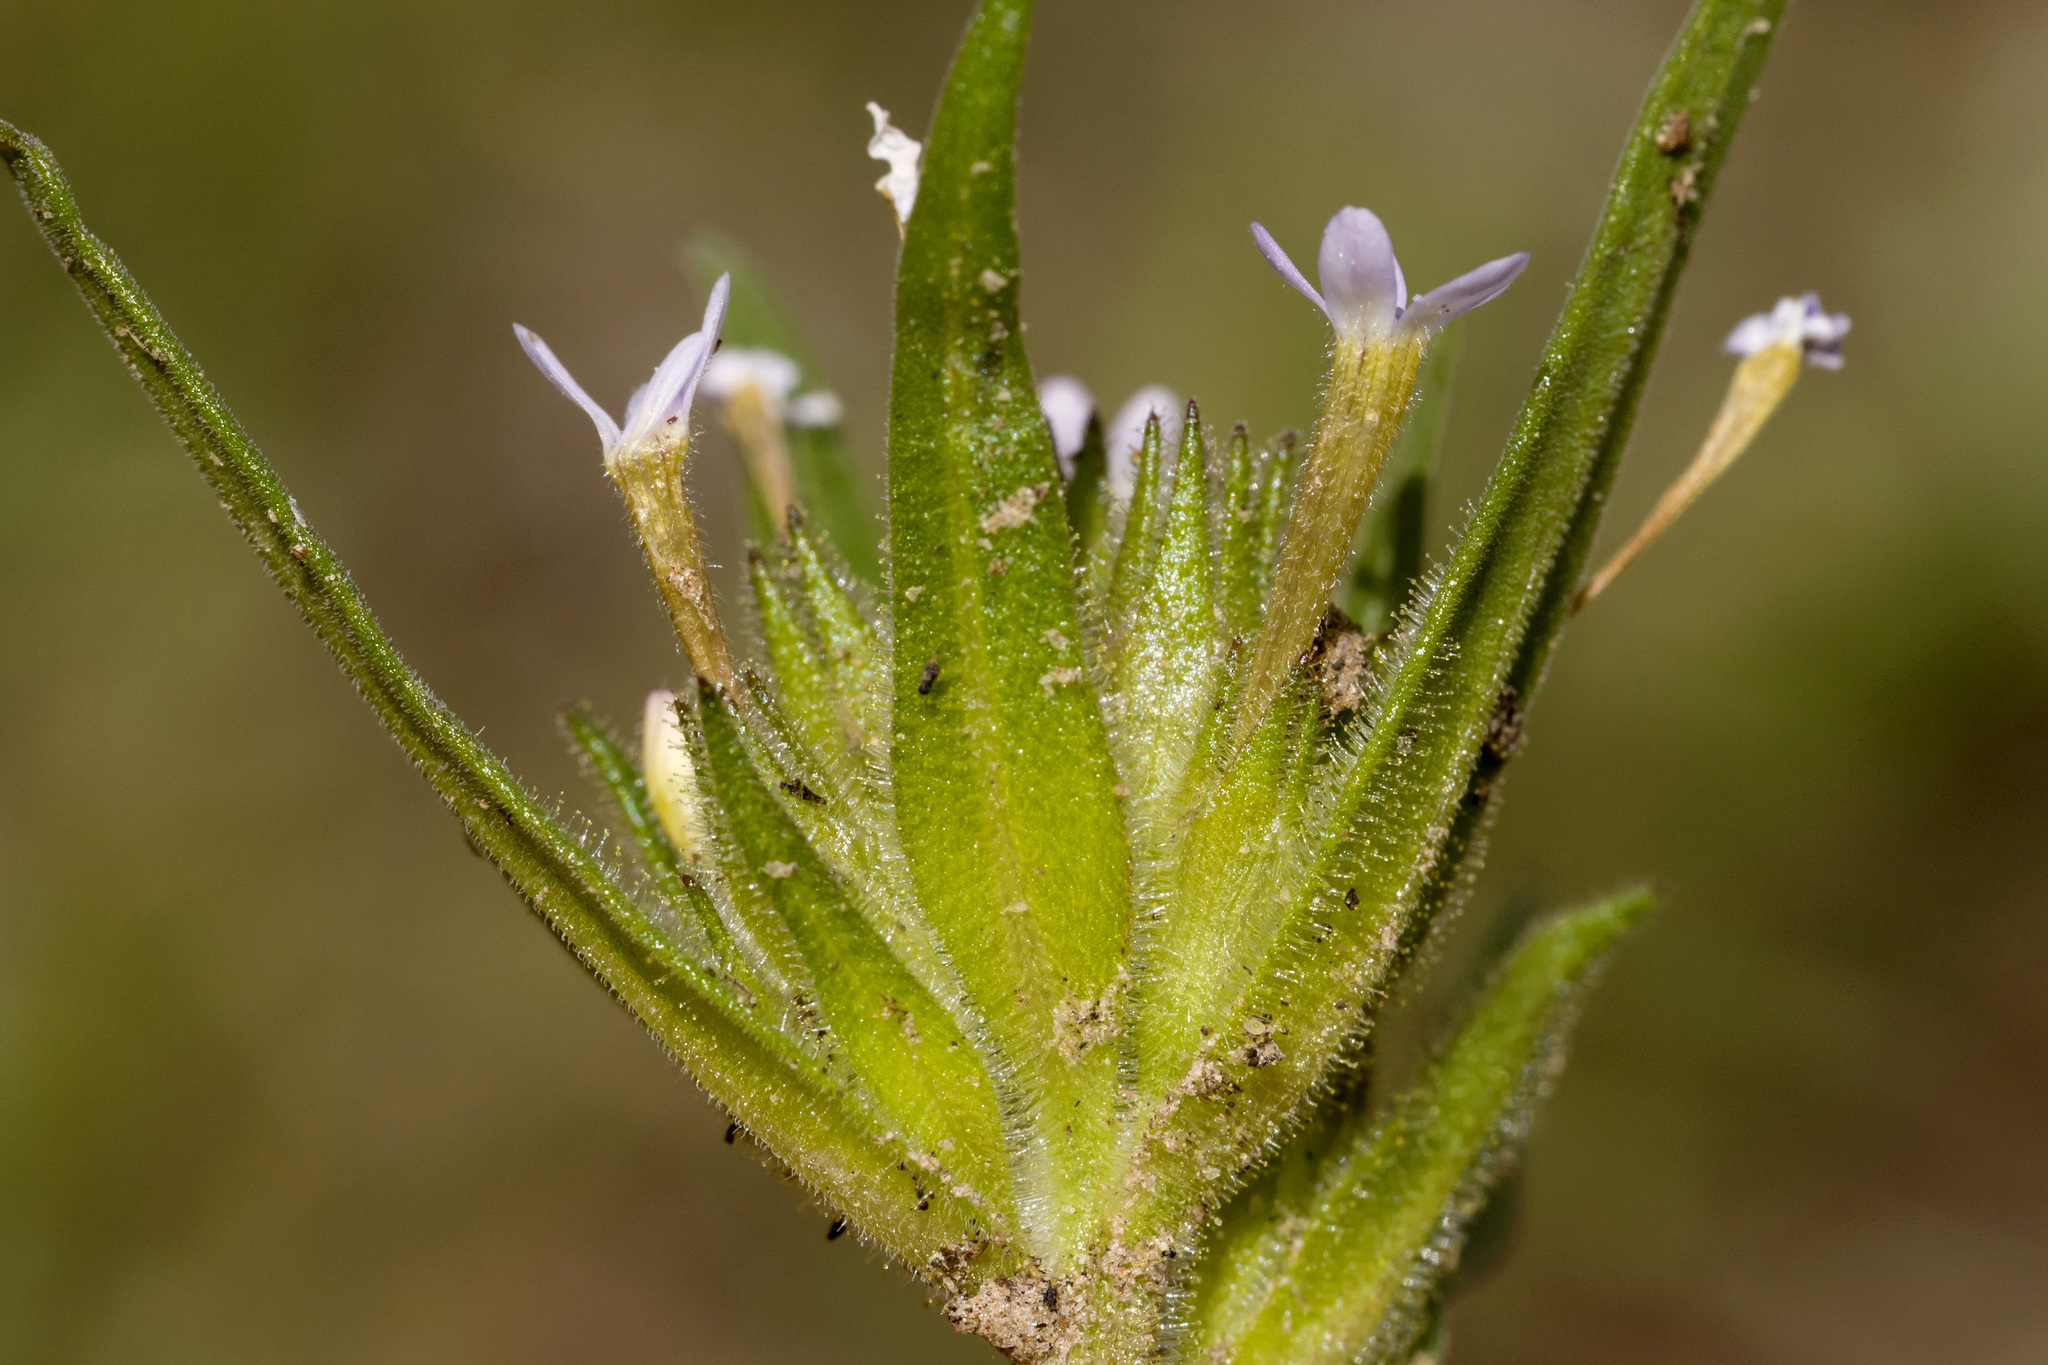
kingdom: Plantae
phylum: Tracheophyta
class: Magnoliopsida
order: Ericales
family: Polemoniaceae
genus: Collomia
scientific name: Collomia linearis
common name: Tiny trumpet
